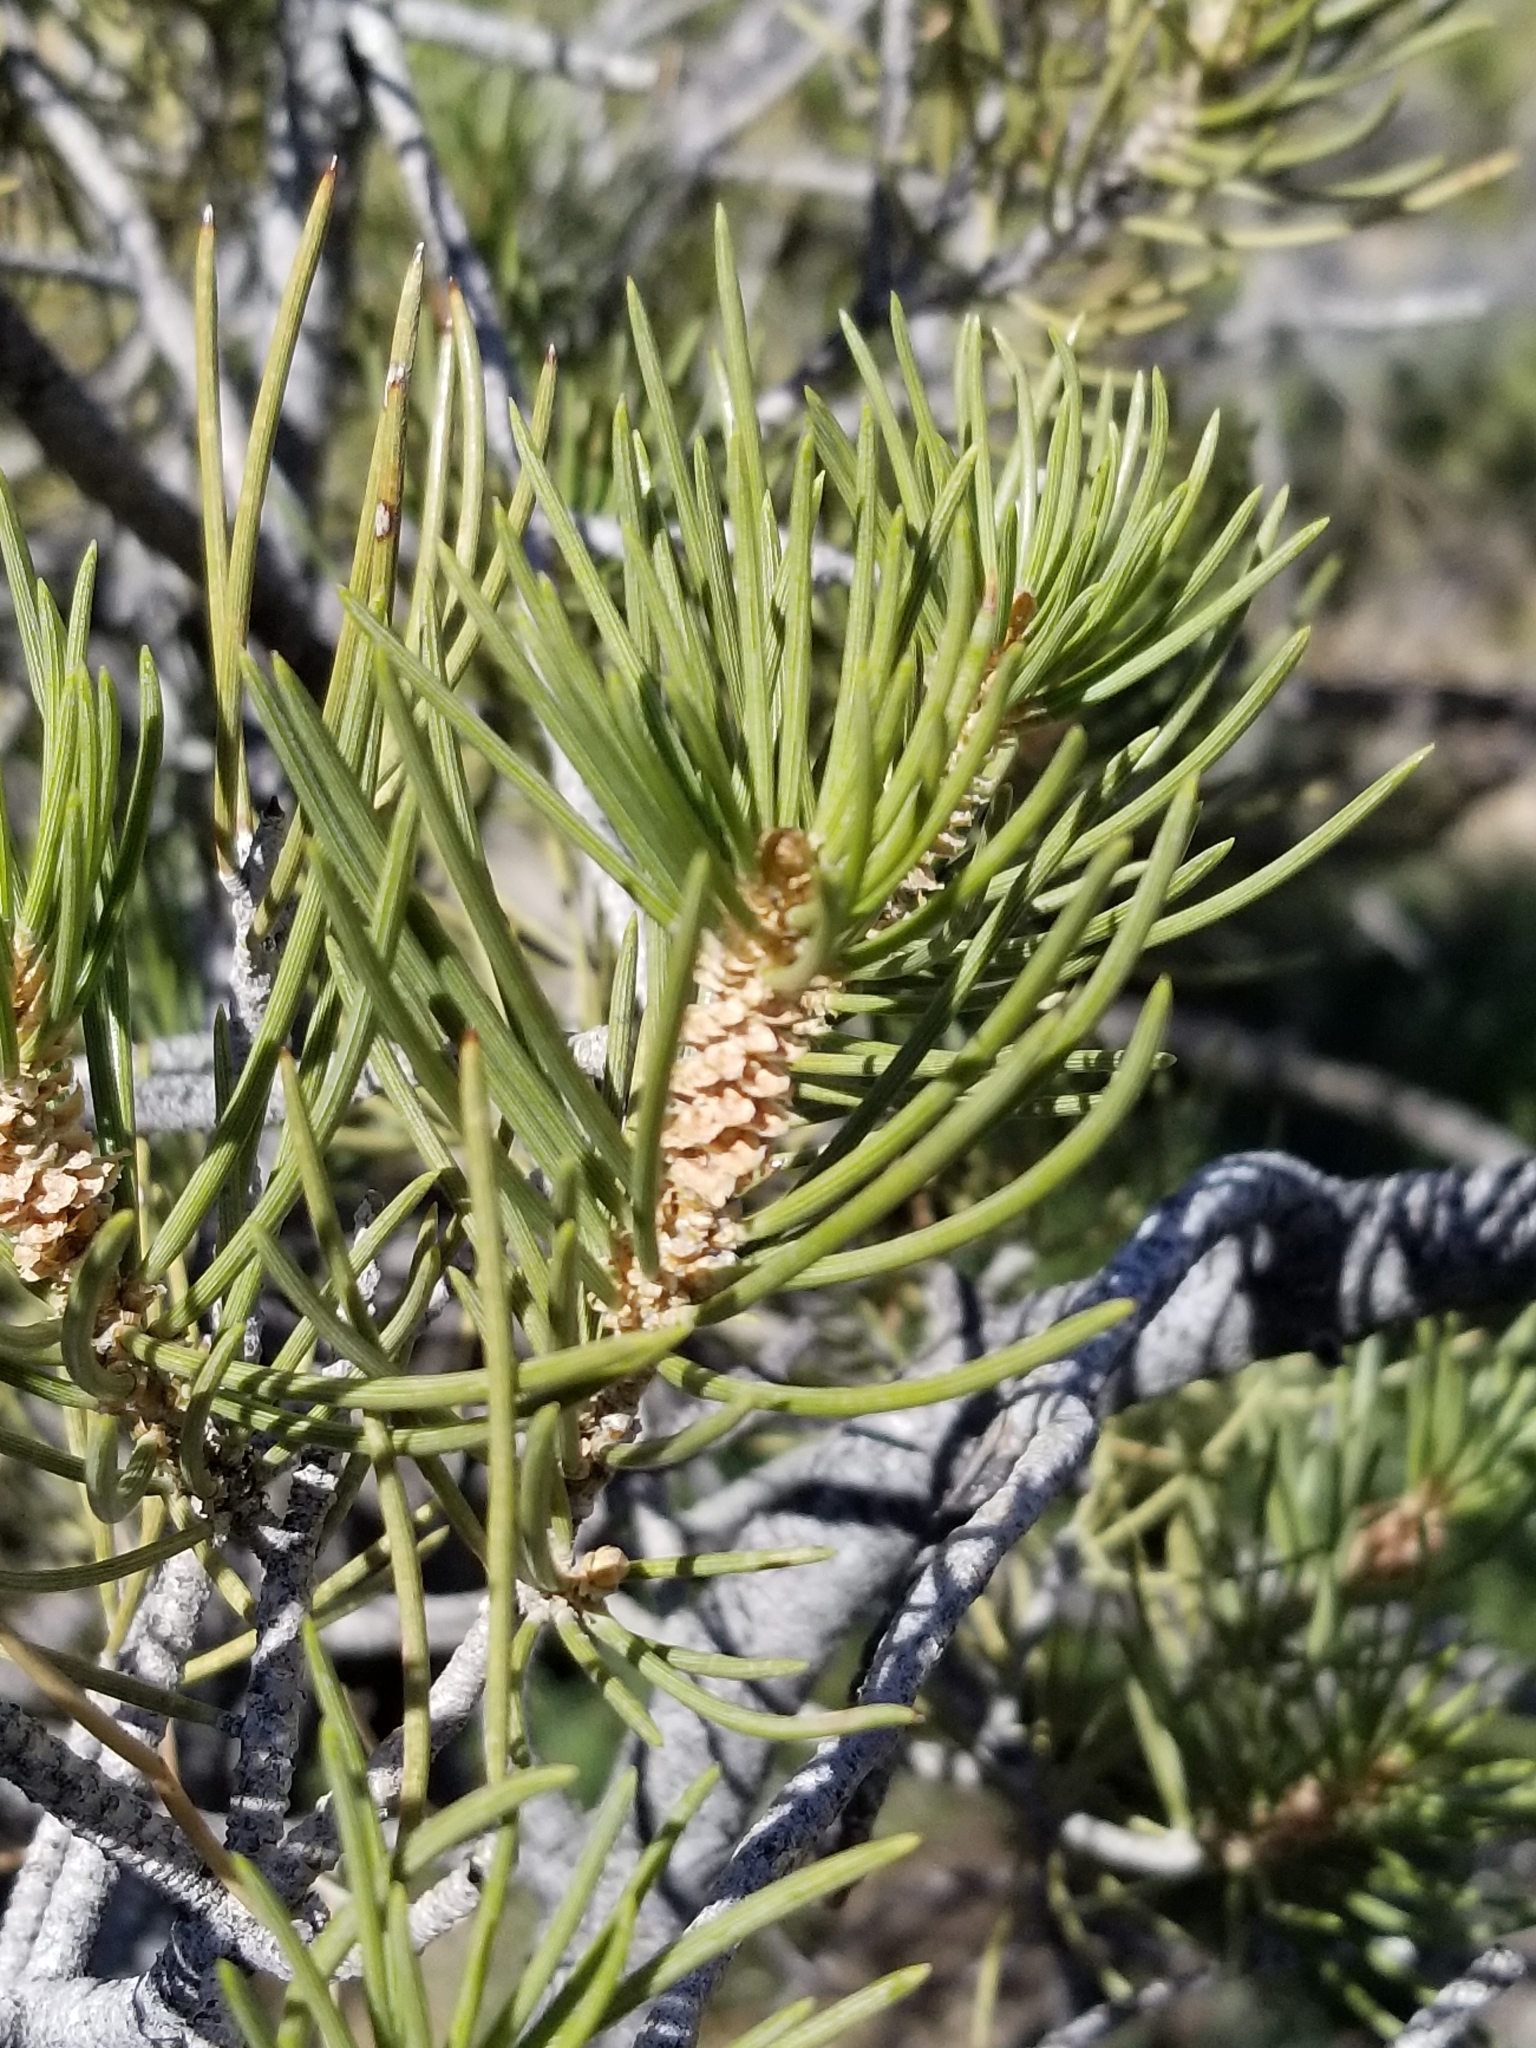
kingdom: Plantae
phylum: Tracheophyta
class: Pinopsida
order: Pinales
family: Pinaceae
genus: Pinus
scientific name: Pinus monophylla
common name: One-leaved nut pine
